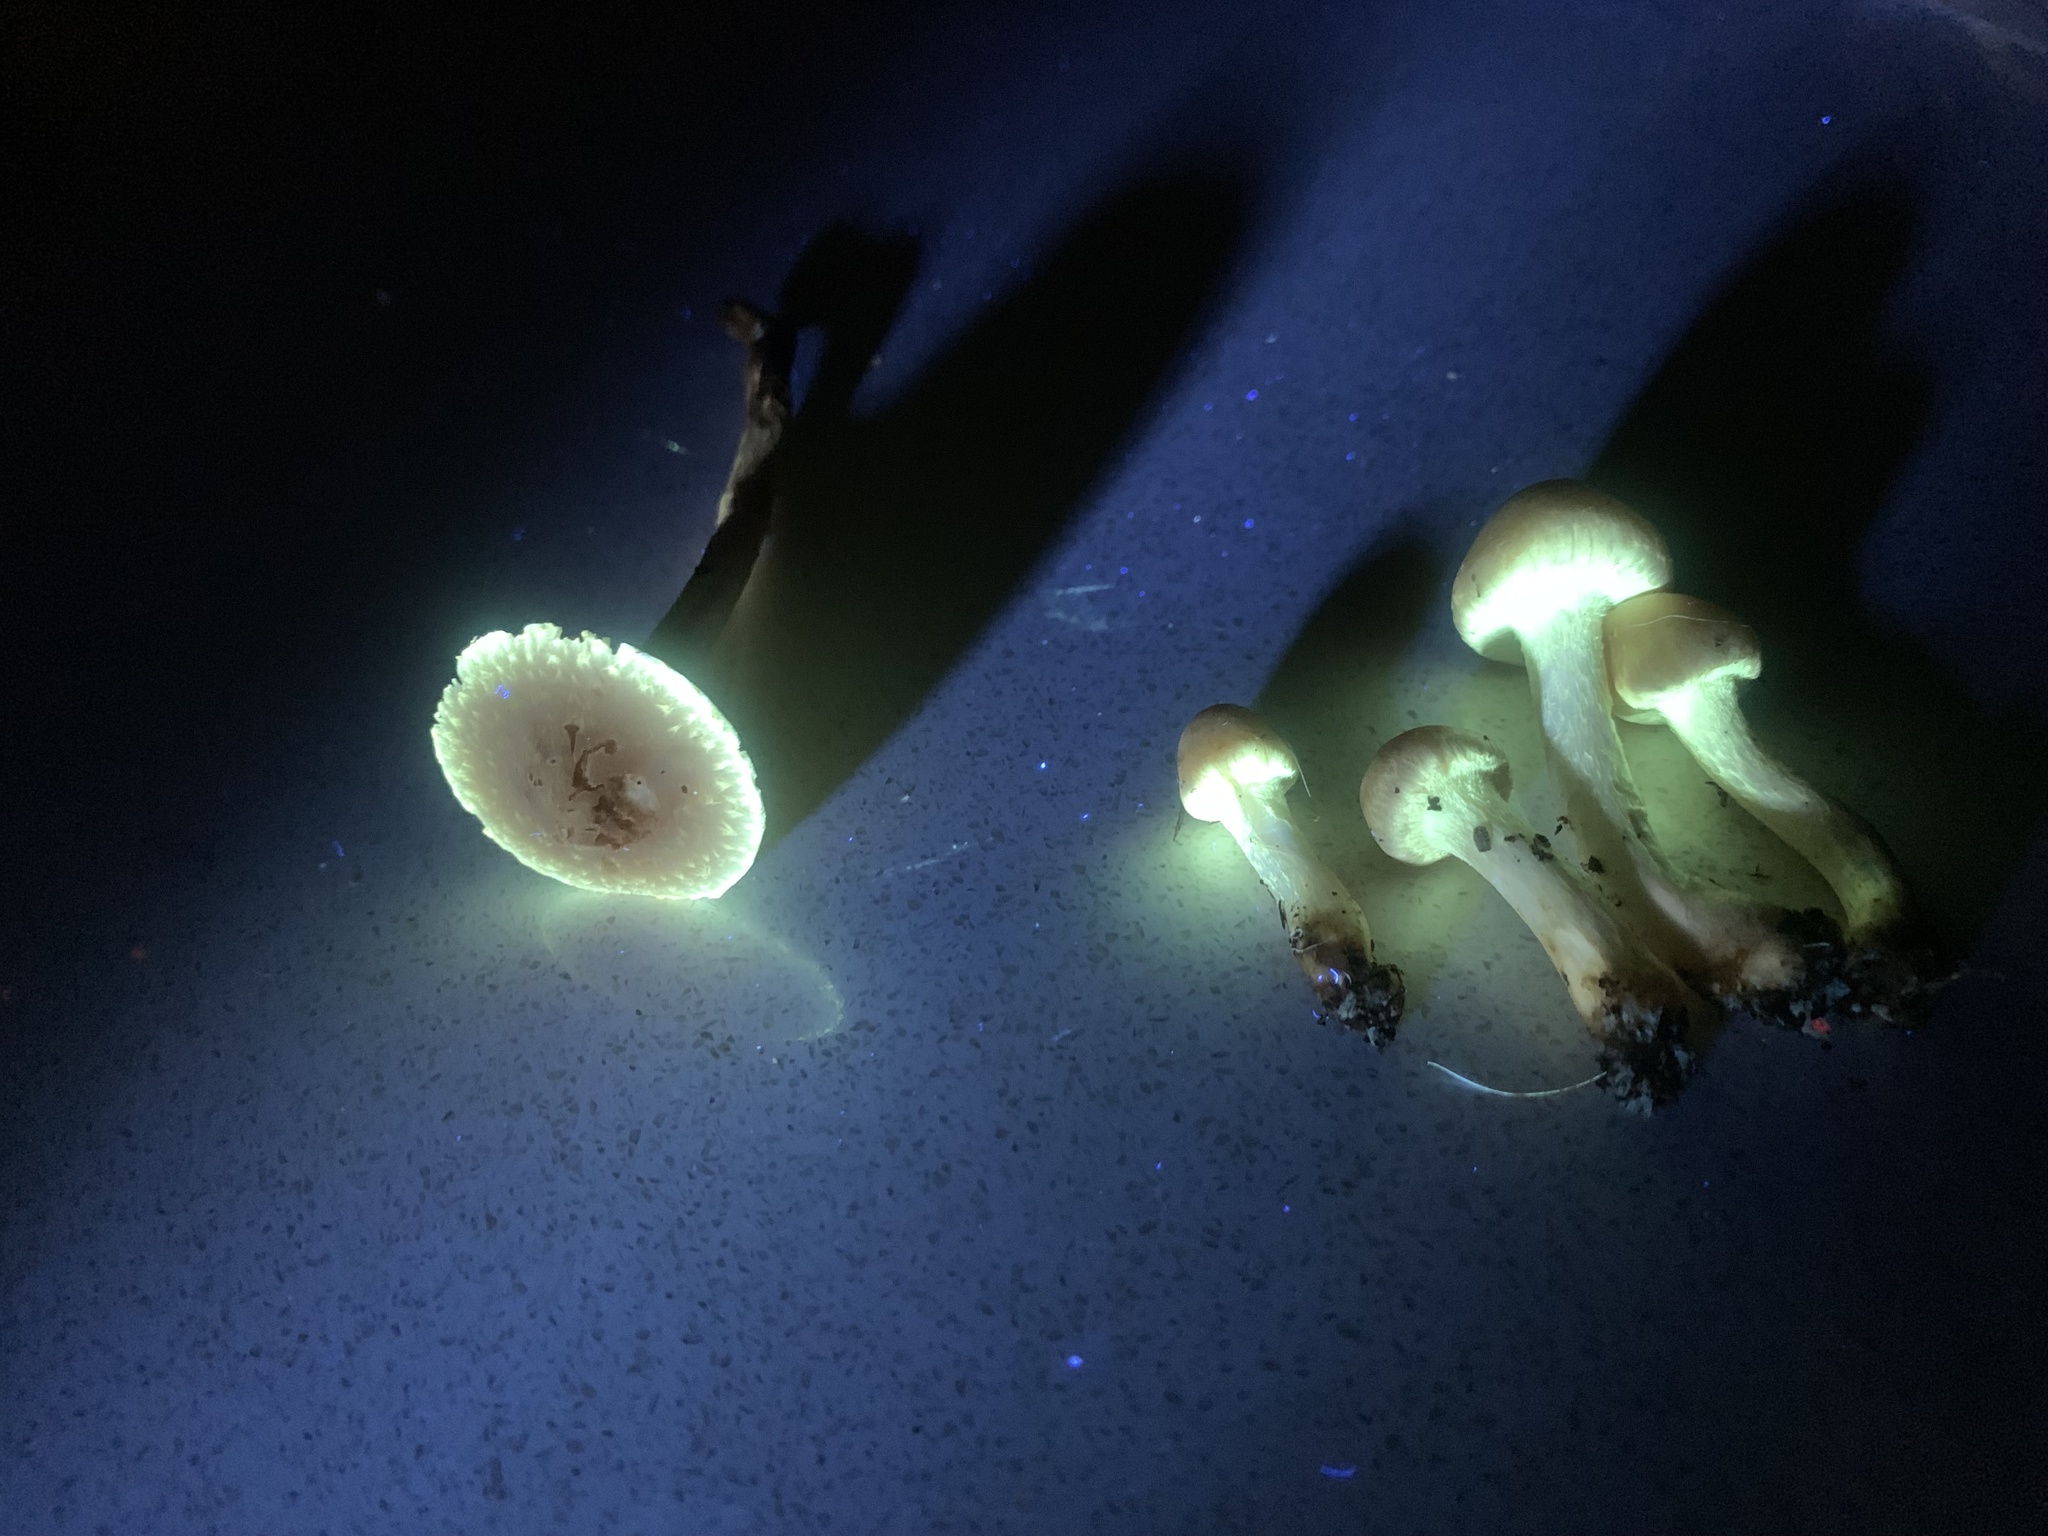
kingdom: Fungi
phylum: Basidiomycota
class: Agaricomycetes
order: Agaricales
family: Strophariaceae
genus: Leratiomyces
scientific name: Leratiomyces percevalii
